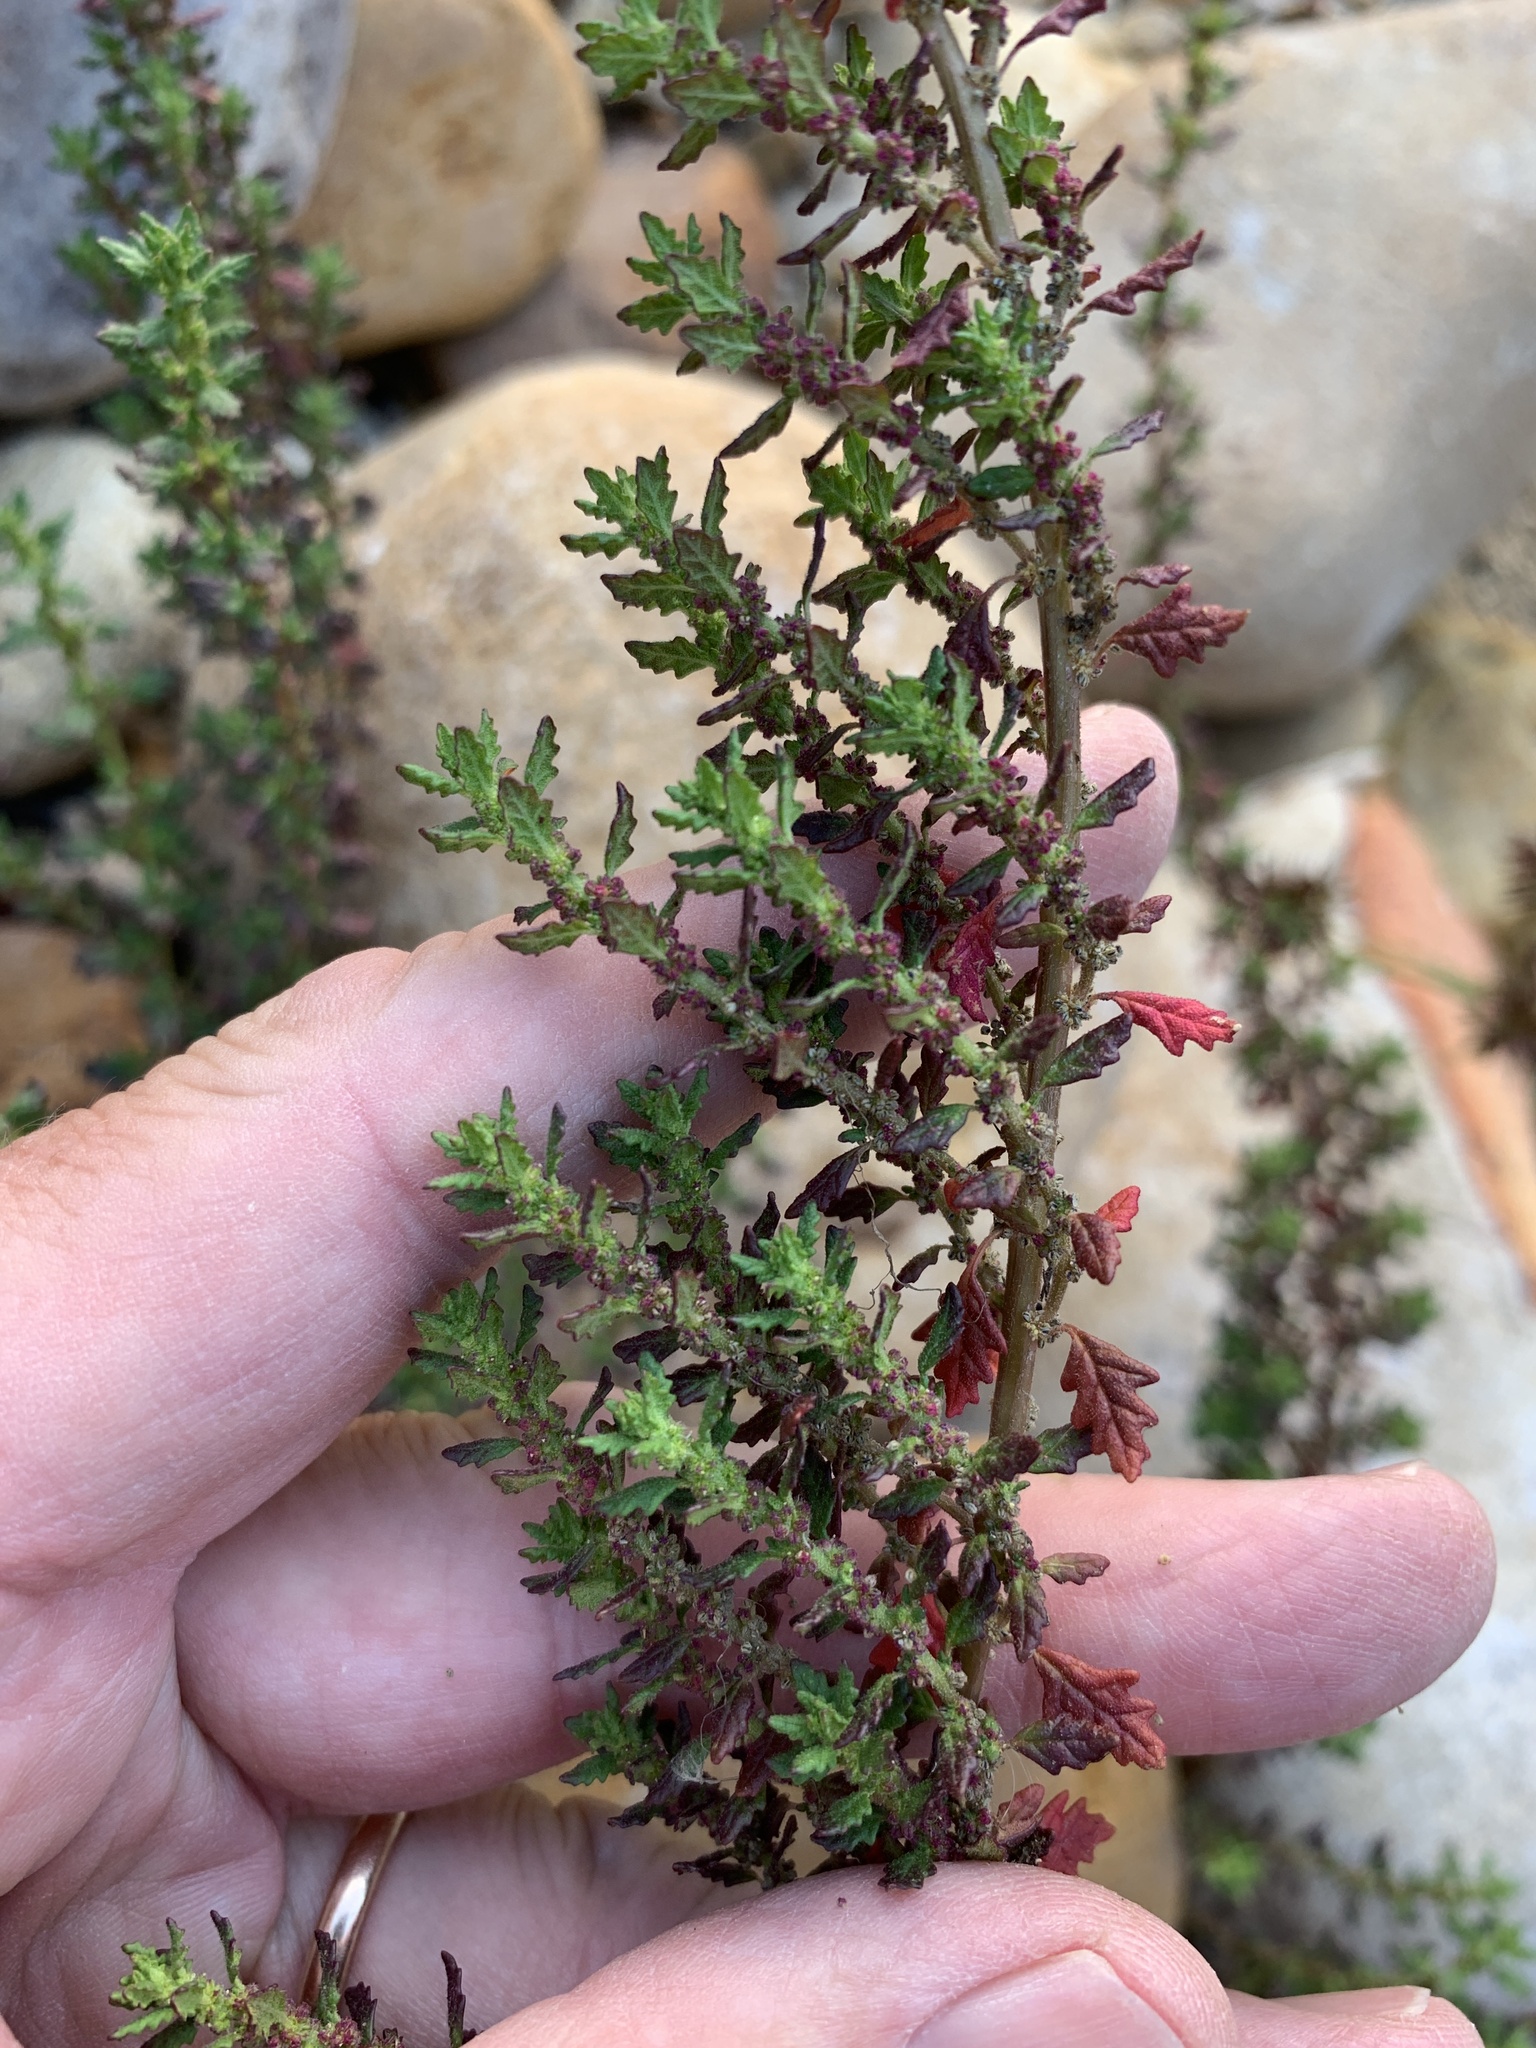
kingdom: Plantae
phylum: Tracheophyta
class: Magnoliopsida
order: Caryophyllales
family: Amaranthaceae
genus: Dysphania
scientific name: Dysphania pumilio
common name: Clammy goosefoot
